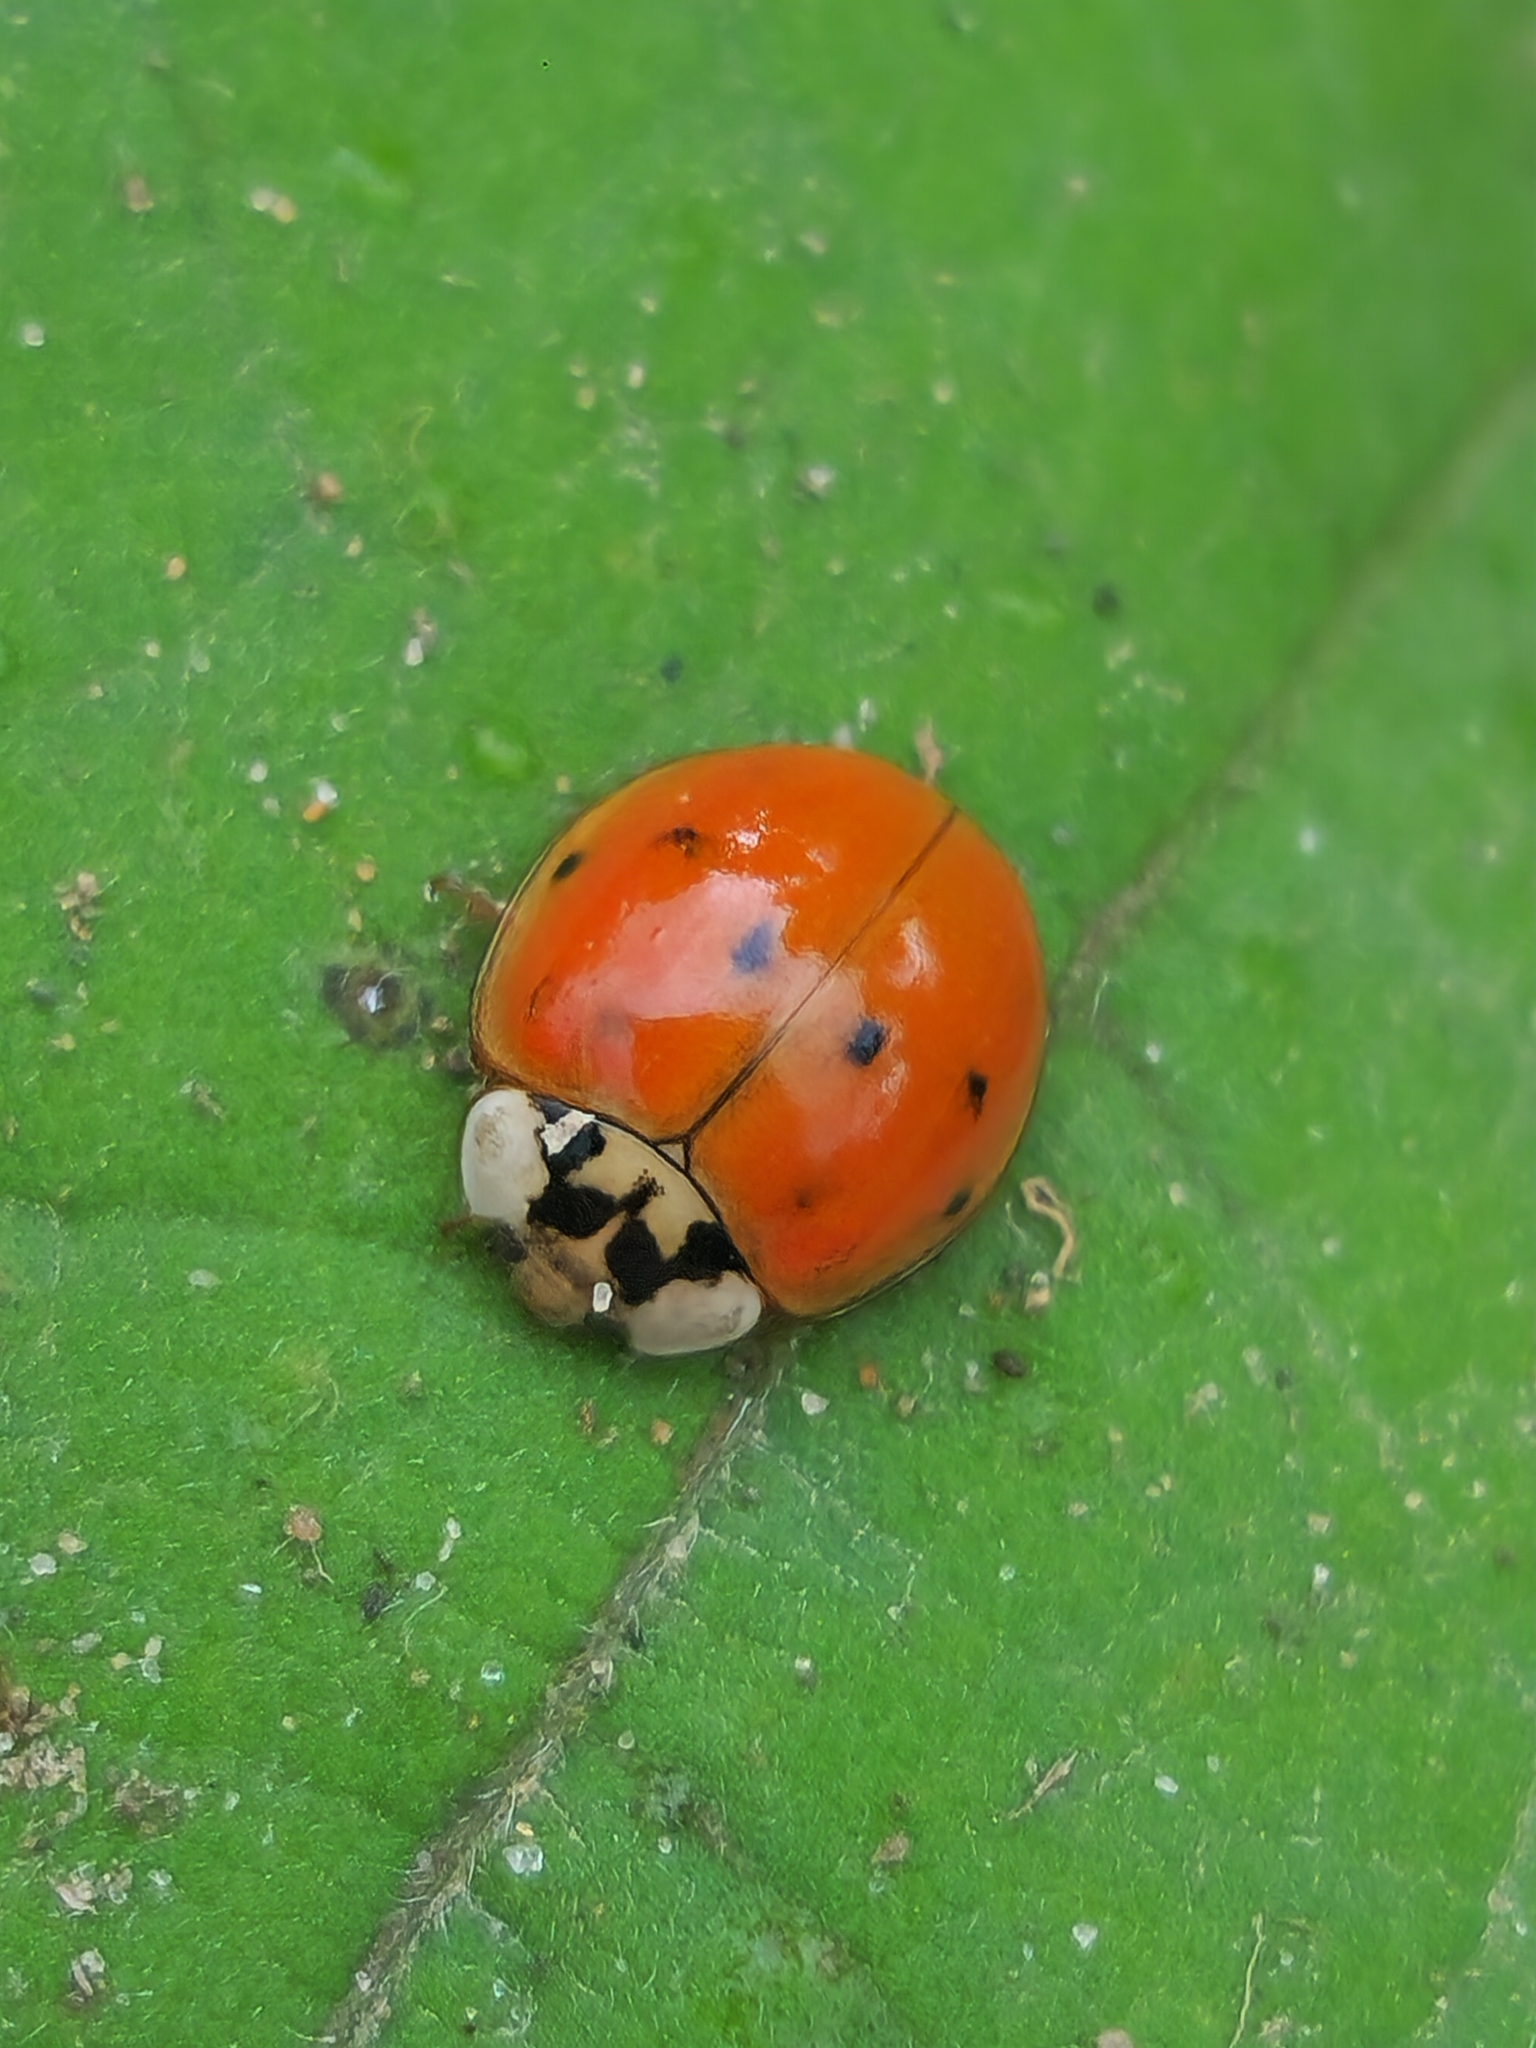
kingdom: Animalia
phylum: Arthropoda
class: Insecta
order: Coleoptera
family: Coccinellidae
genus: Harmonia
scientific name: Harmonia axyridis
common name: Harlequin ladybird
